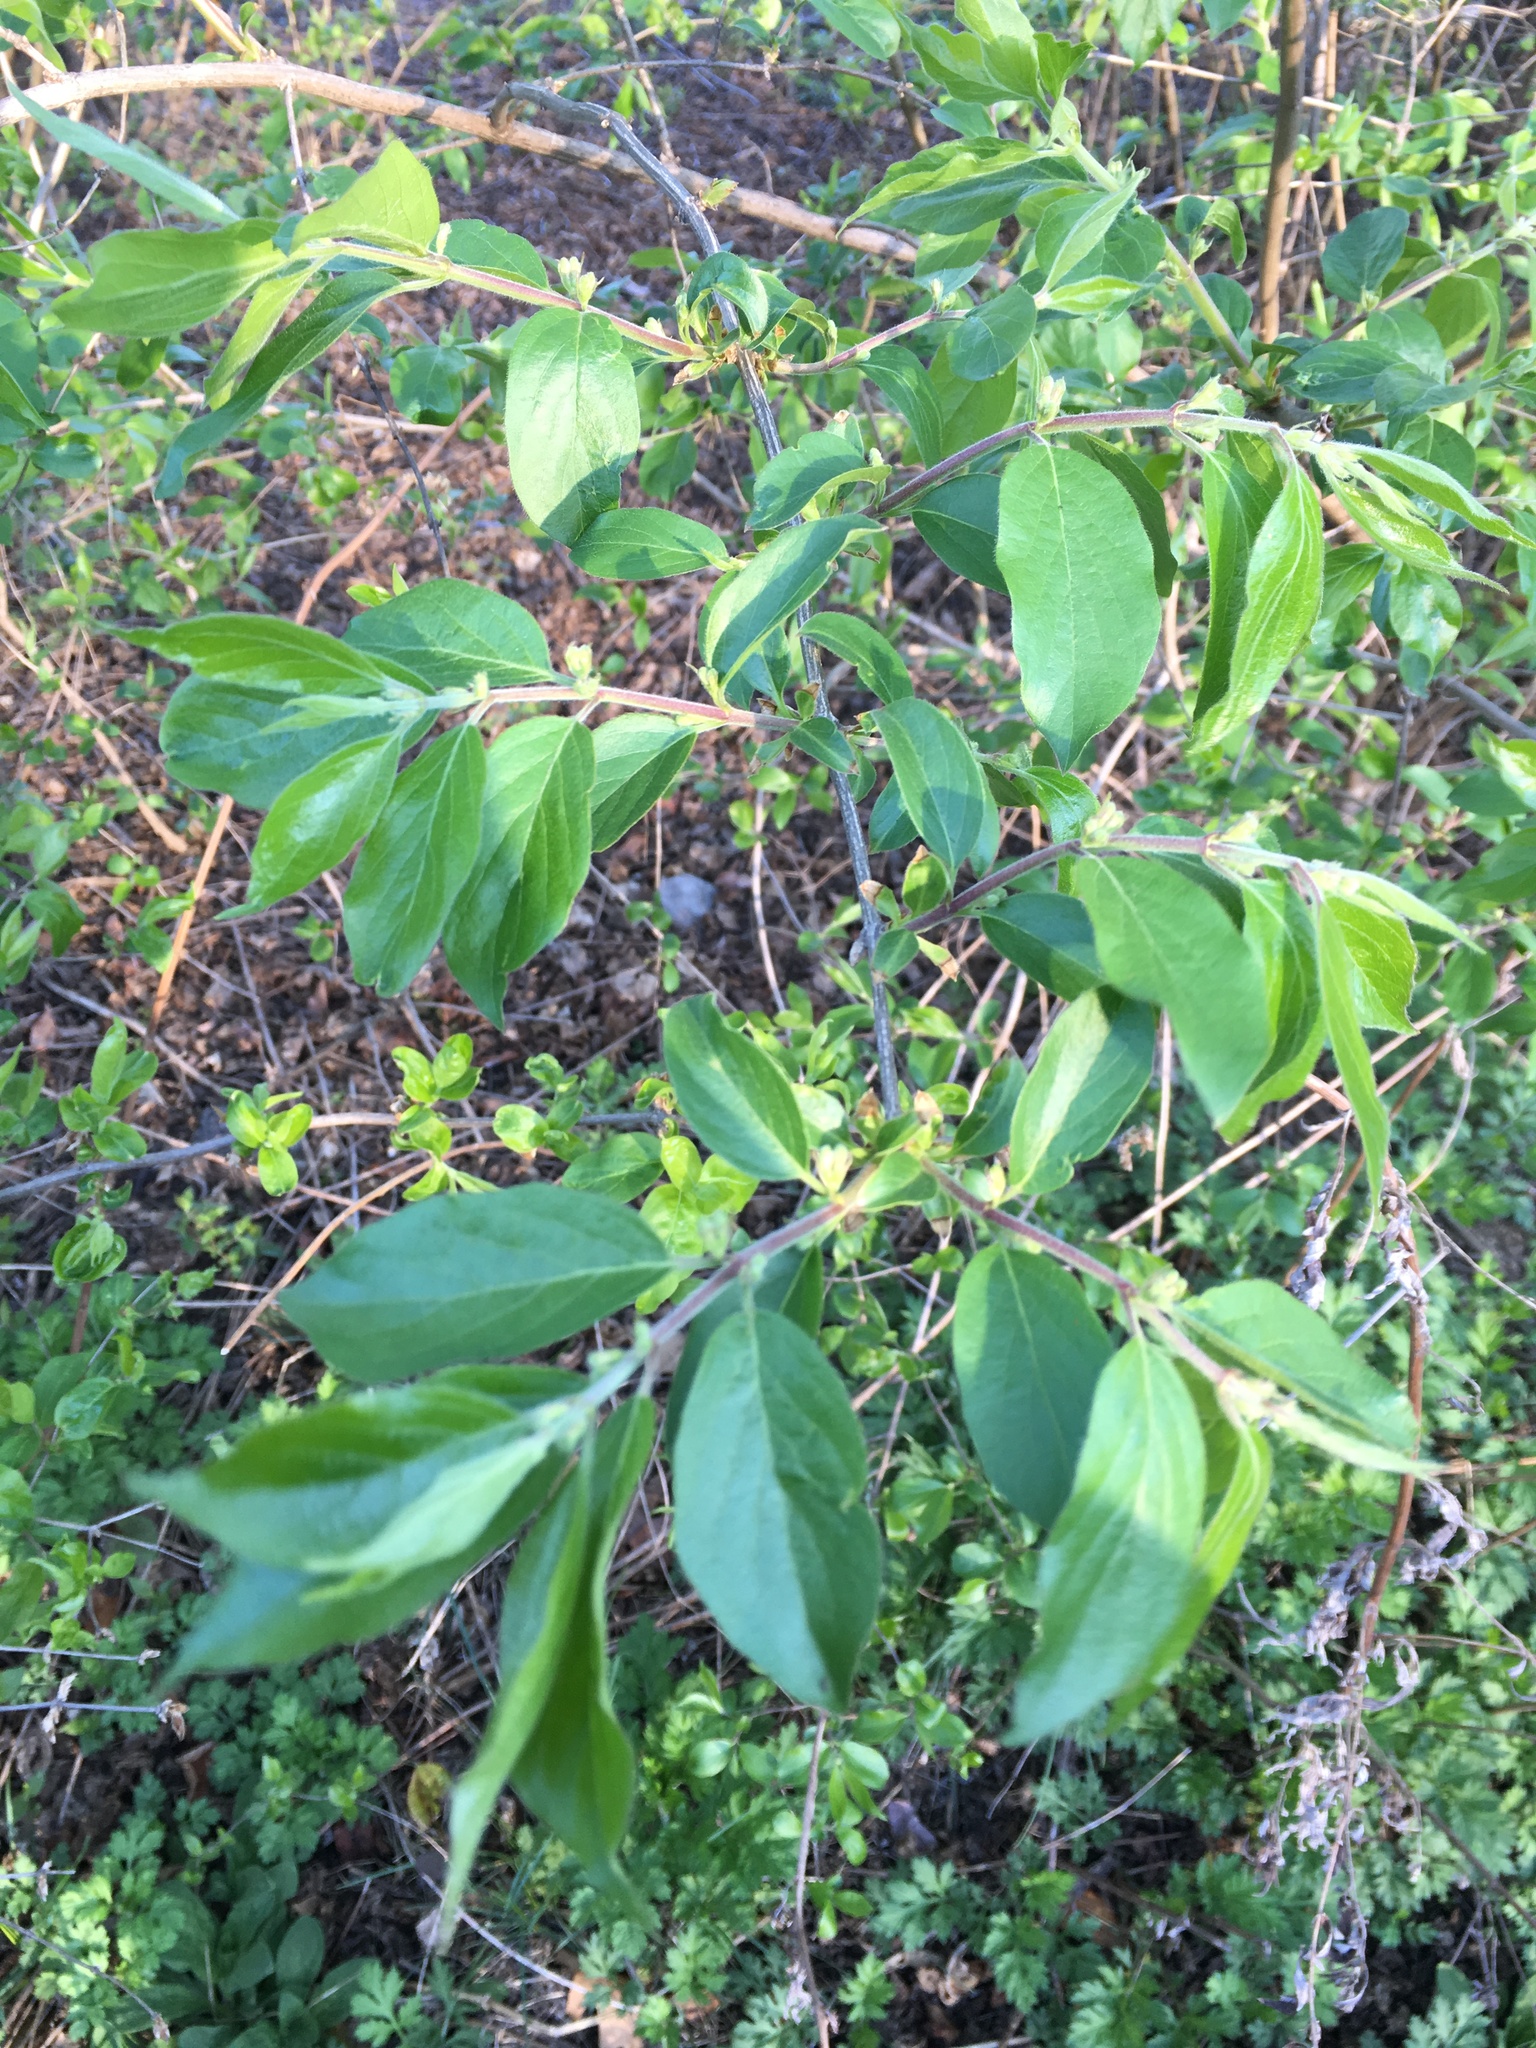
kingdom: Plantae
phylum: Tracheophyta
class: Magnoliopsida
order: Dipsacales
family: Caprifoliaceae
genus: Lonicera
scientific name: Lonicera maackii
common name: Amur honeysuckle
